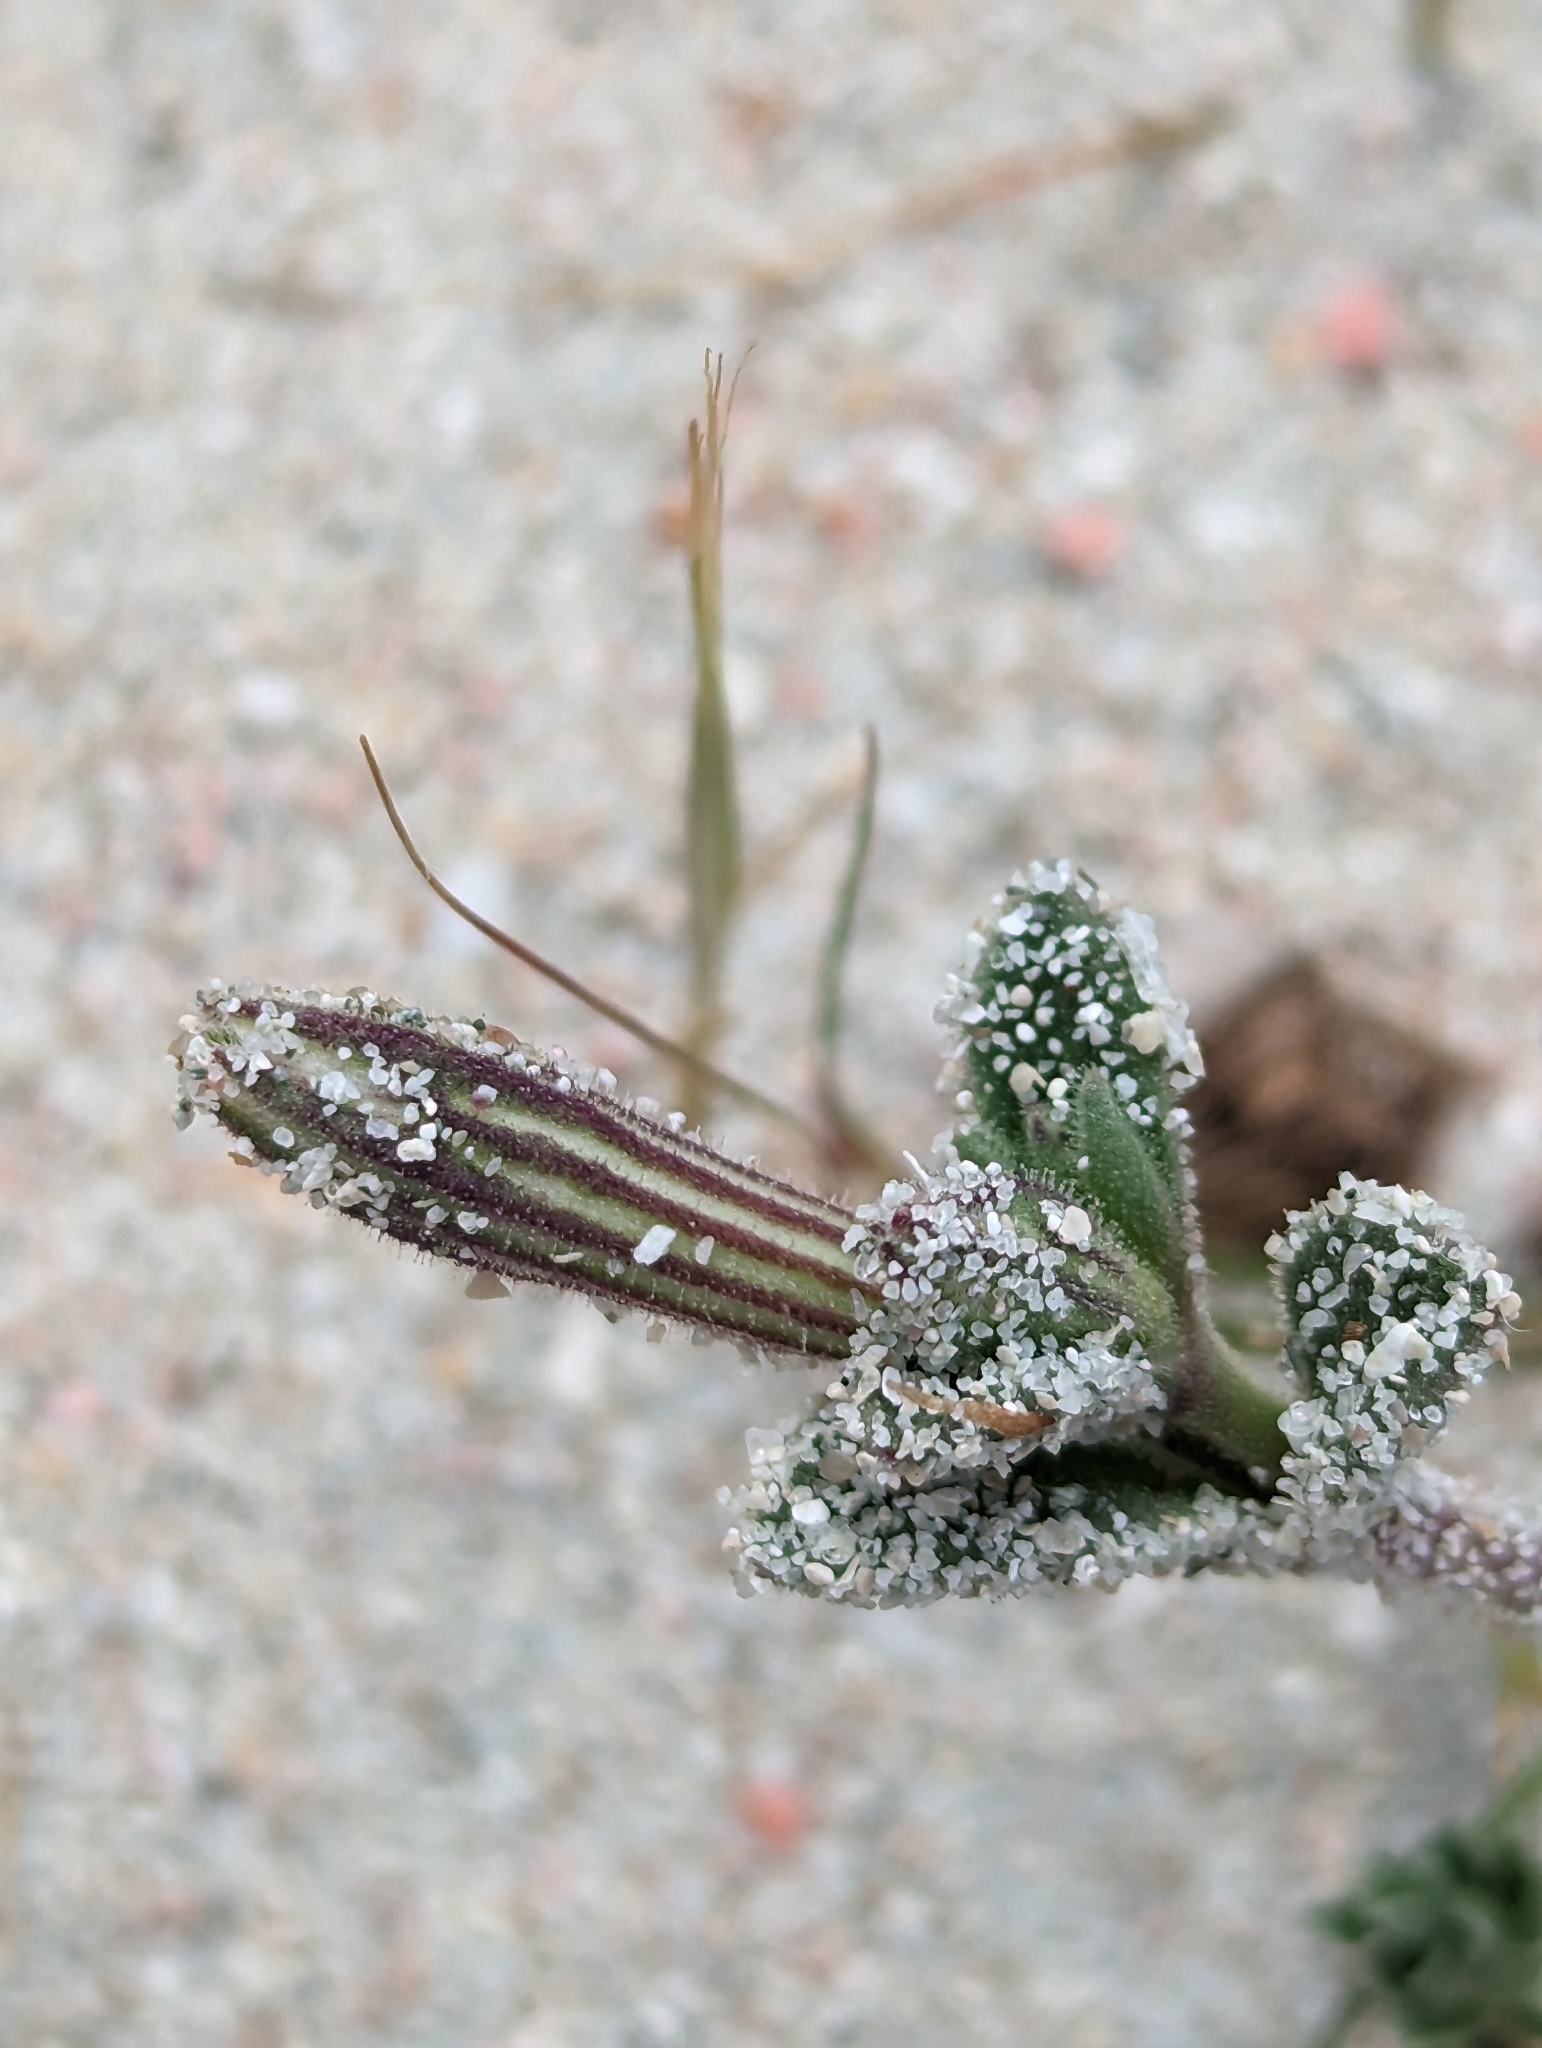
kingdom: Plantae
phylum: Tracheophyta
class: Magnoliopsida
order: Caryophyllales
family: Caryophyllaceae
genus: Silene
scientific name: Silene succulenta
